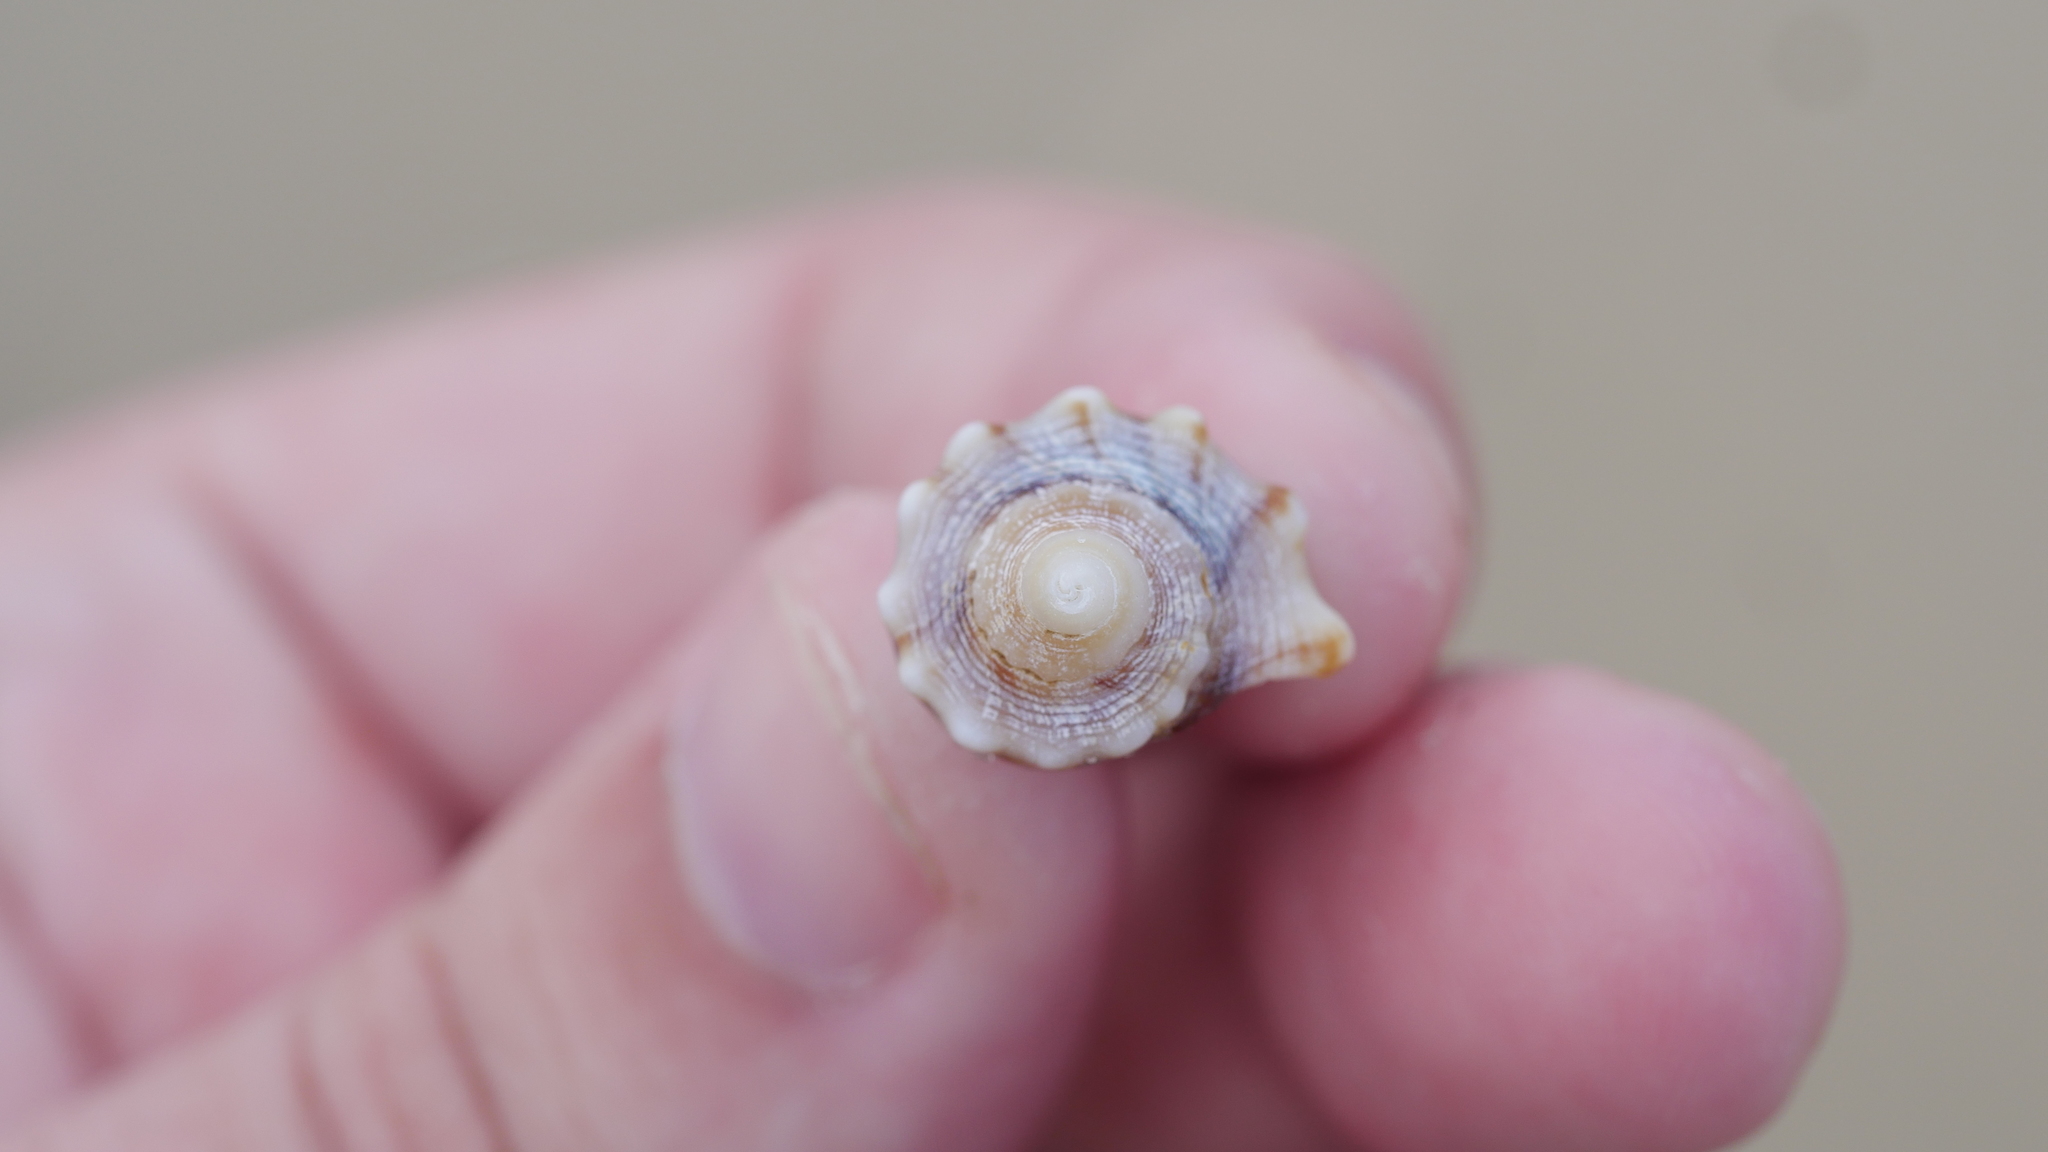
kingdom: Animalia
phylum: Mollusca
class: Gastropoda
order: Neogastropoda
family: Busyconidae
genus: Busycon
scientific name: Busycon carica
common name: Knobbed whelk
